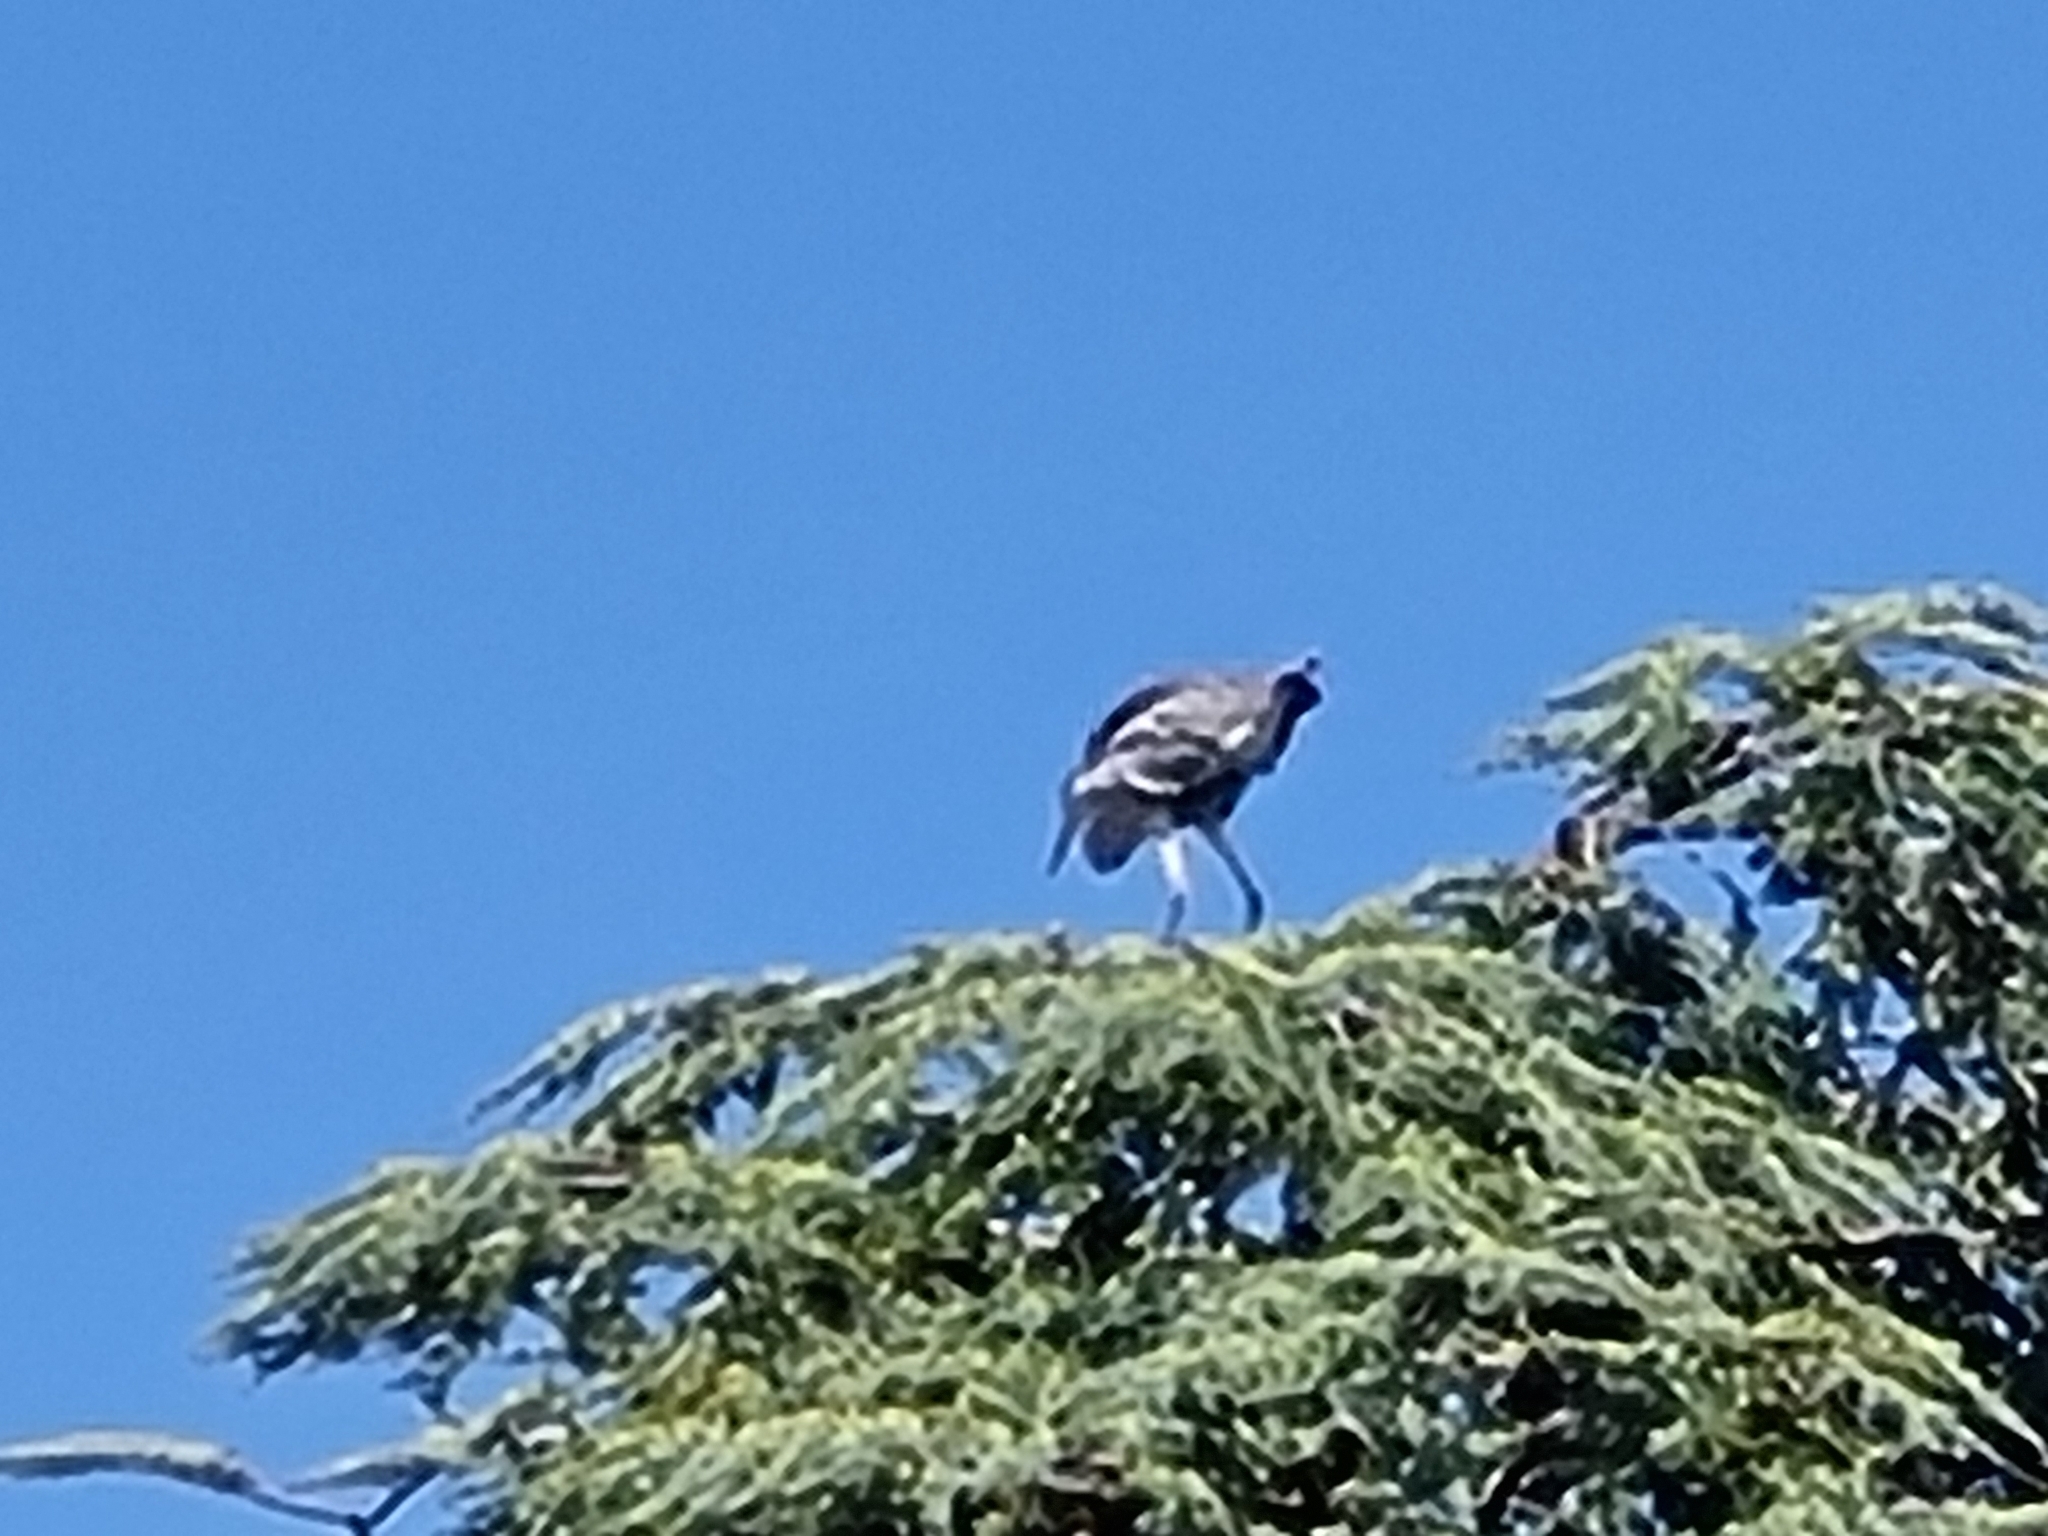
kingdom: Animalia
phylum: Chordata
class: Aves
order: Pelecaniformes
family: Ardeidae
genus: Ardea
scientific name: Ardea cinerea
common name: Grey heron
